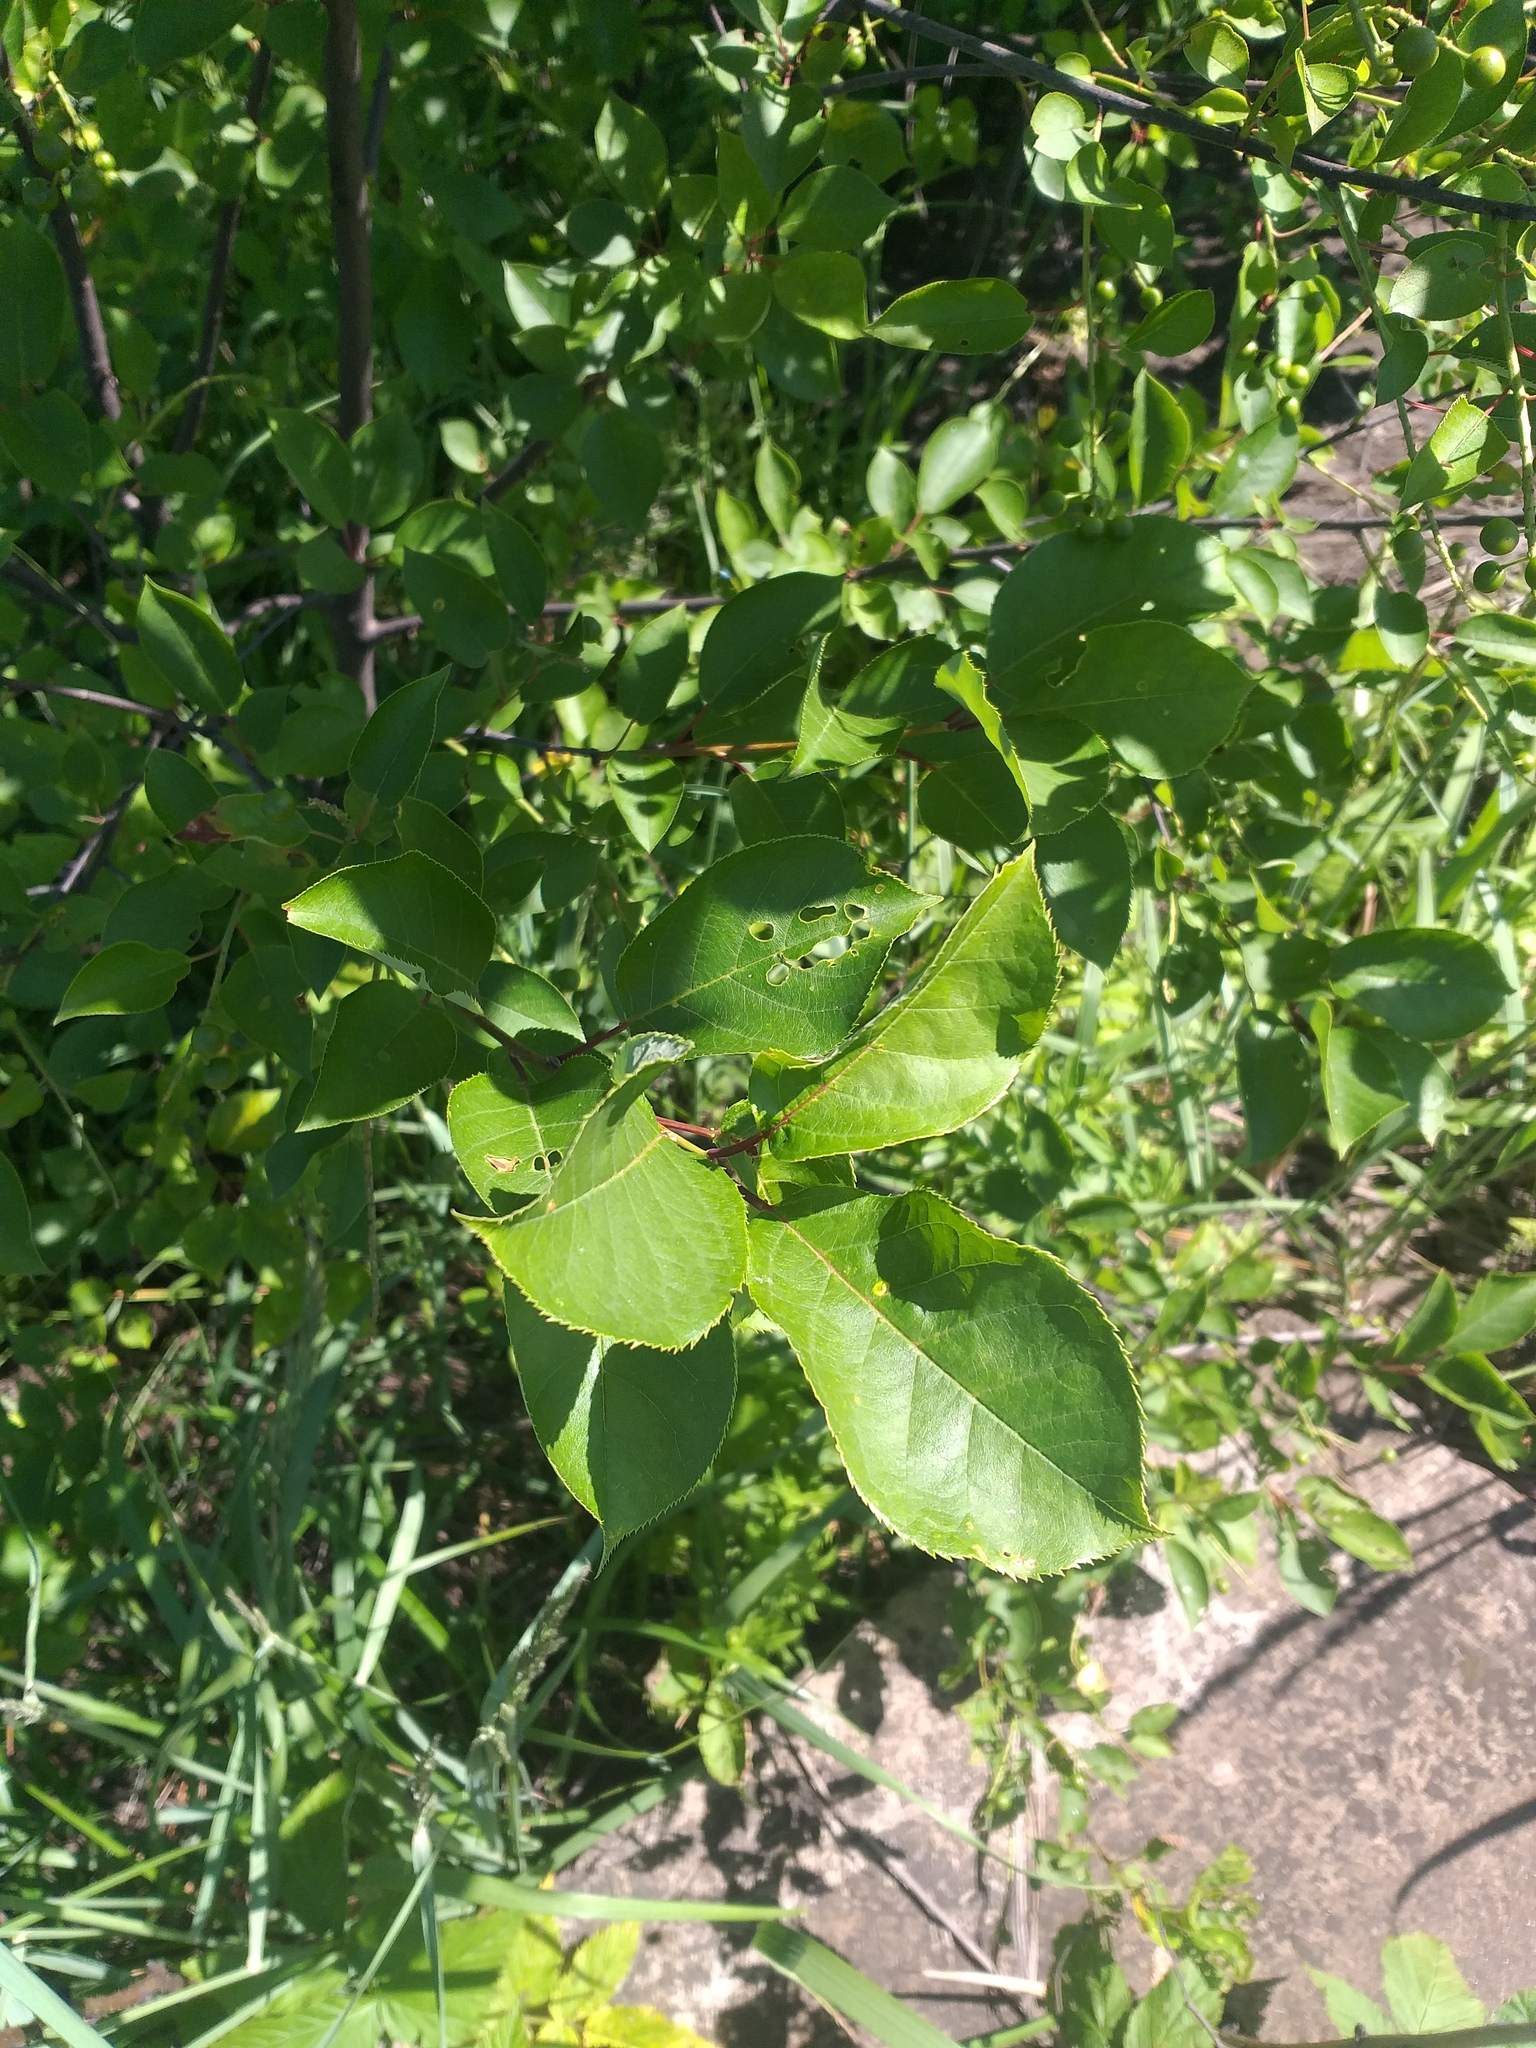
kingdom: Plantae
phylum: Tracheophyta
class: Magnoliopsida
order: Rosales
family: Rosaceae
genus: Prunus
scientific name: Prunus virginiana
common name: Chokecherry
